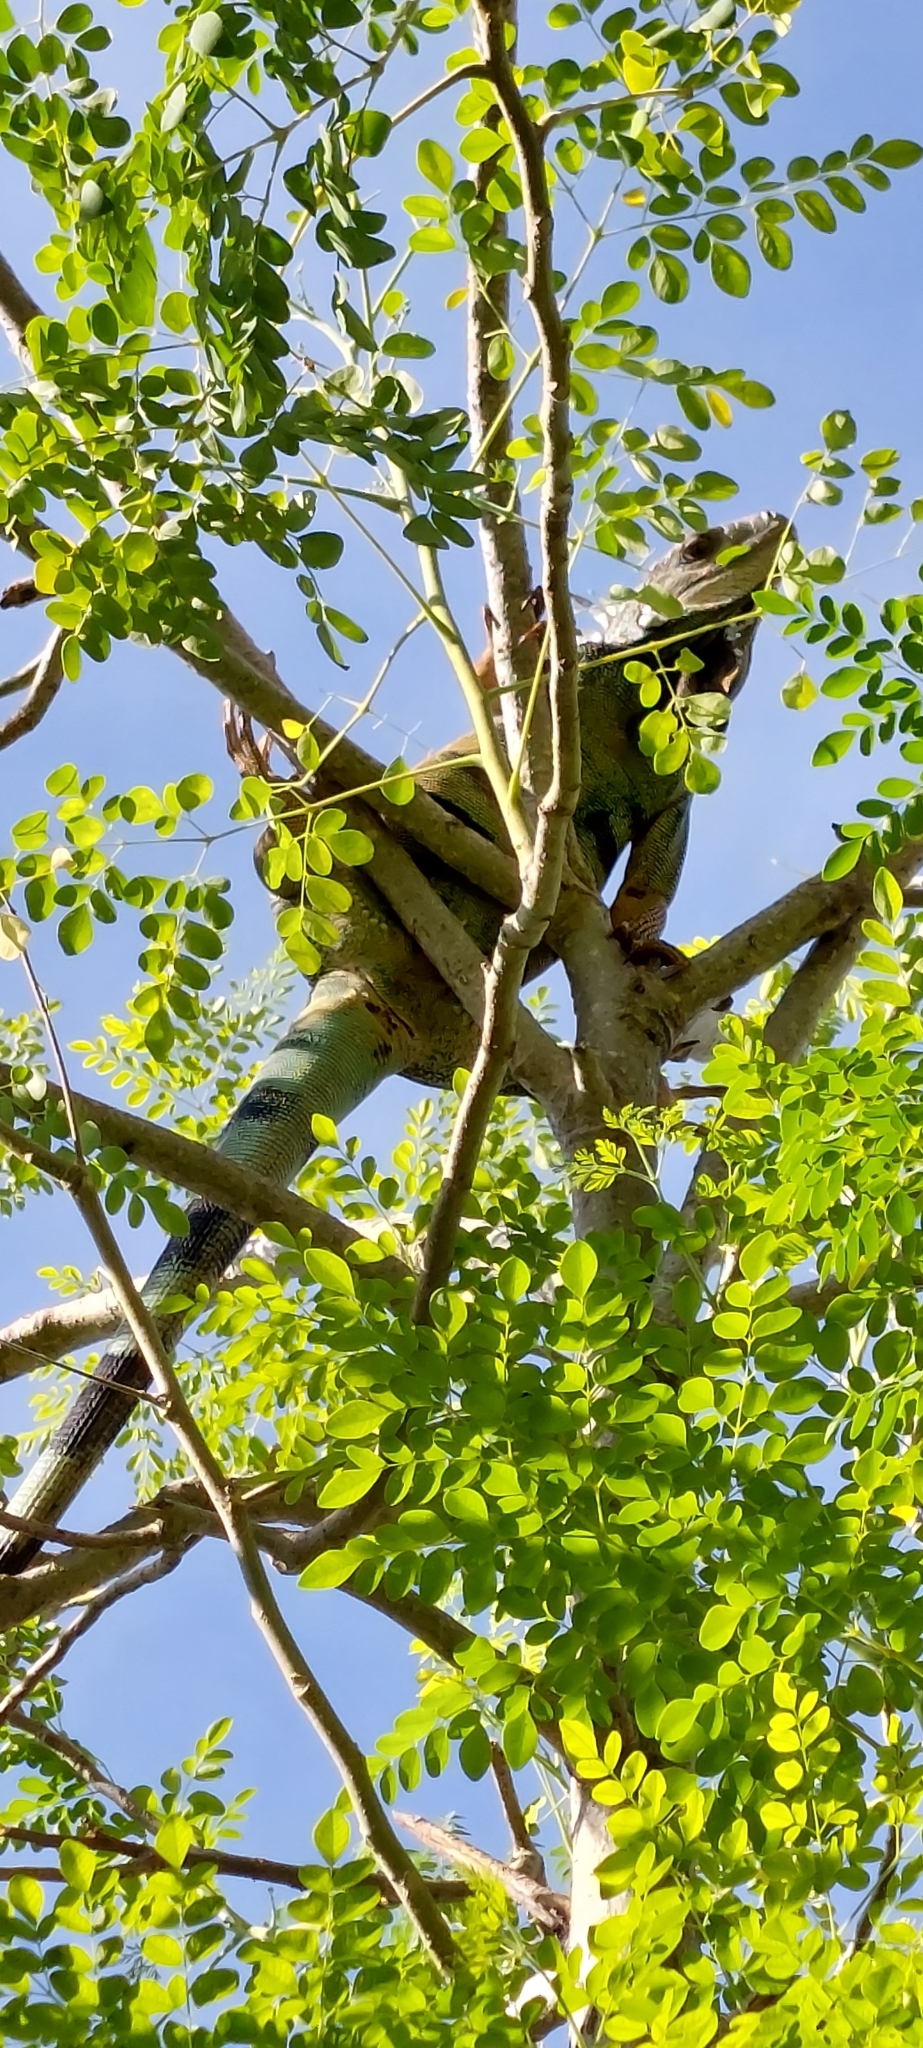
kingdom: Animalia
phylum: Chordata
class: Squamata
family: Iguanidae
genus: Iguana
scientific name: Iguana iguana
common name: Green iguana
